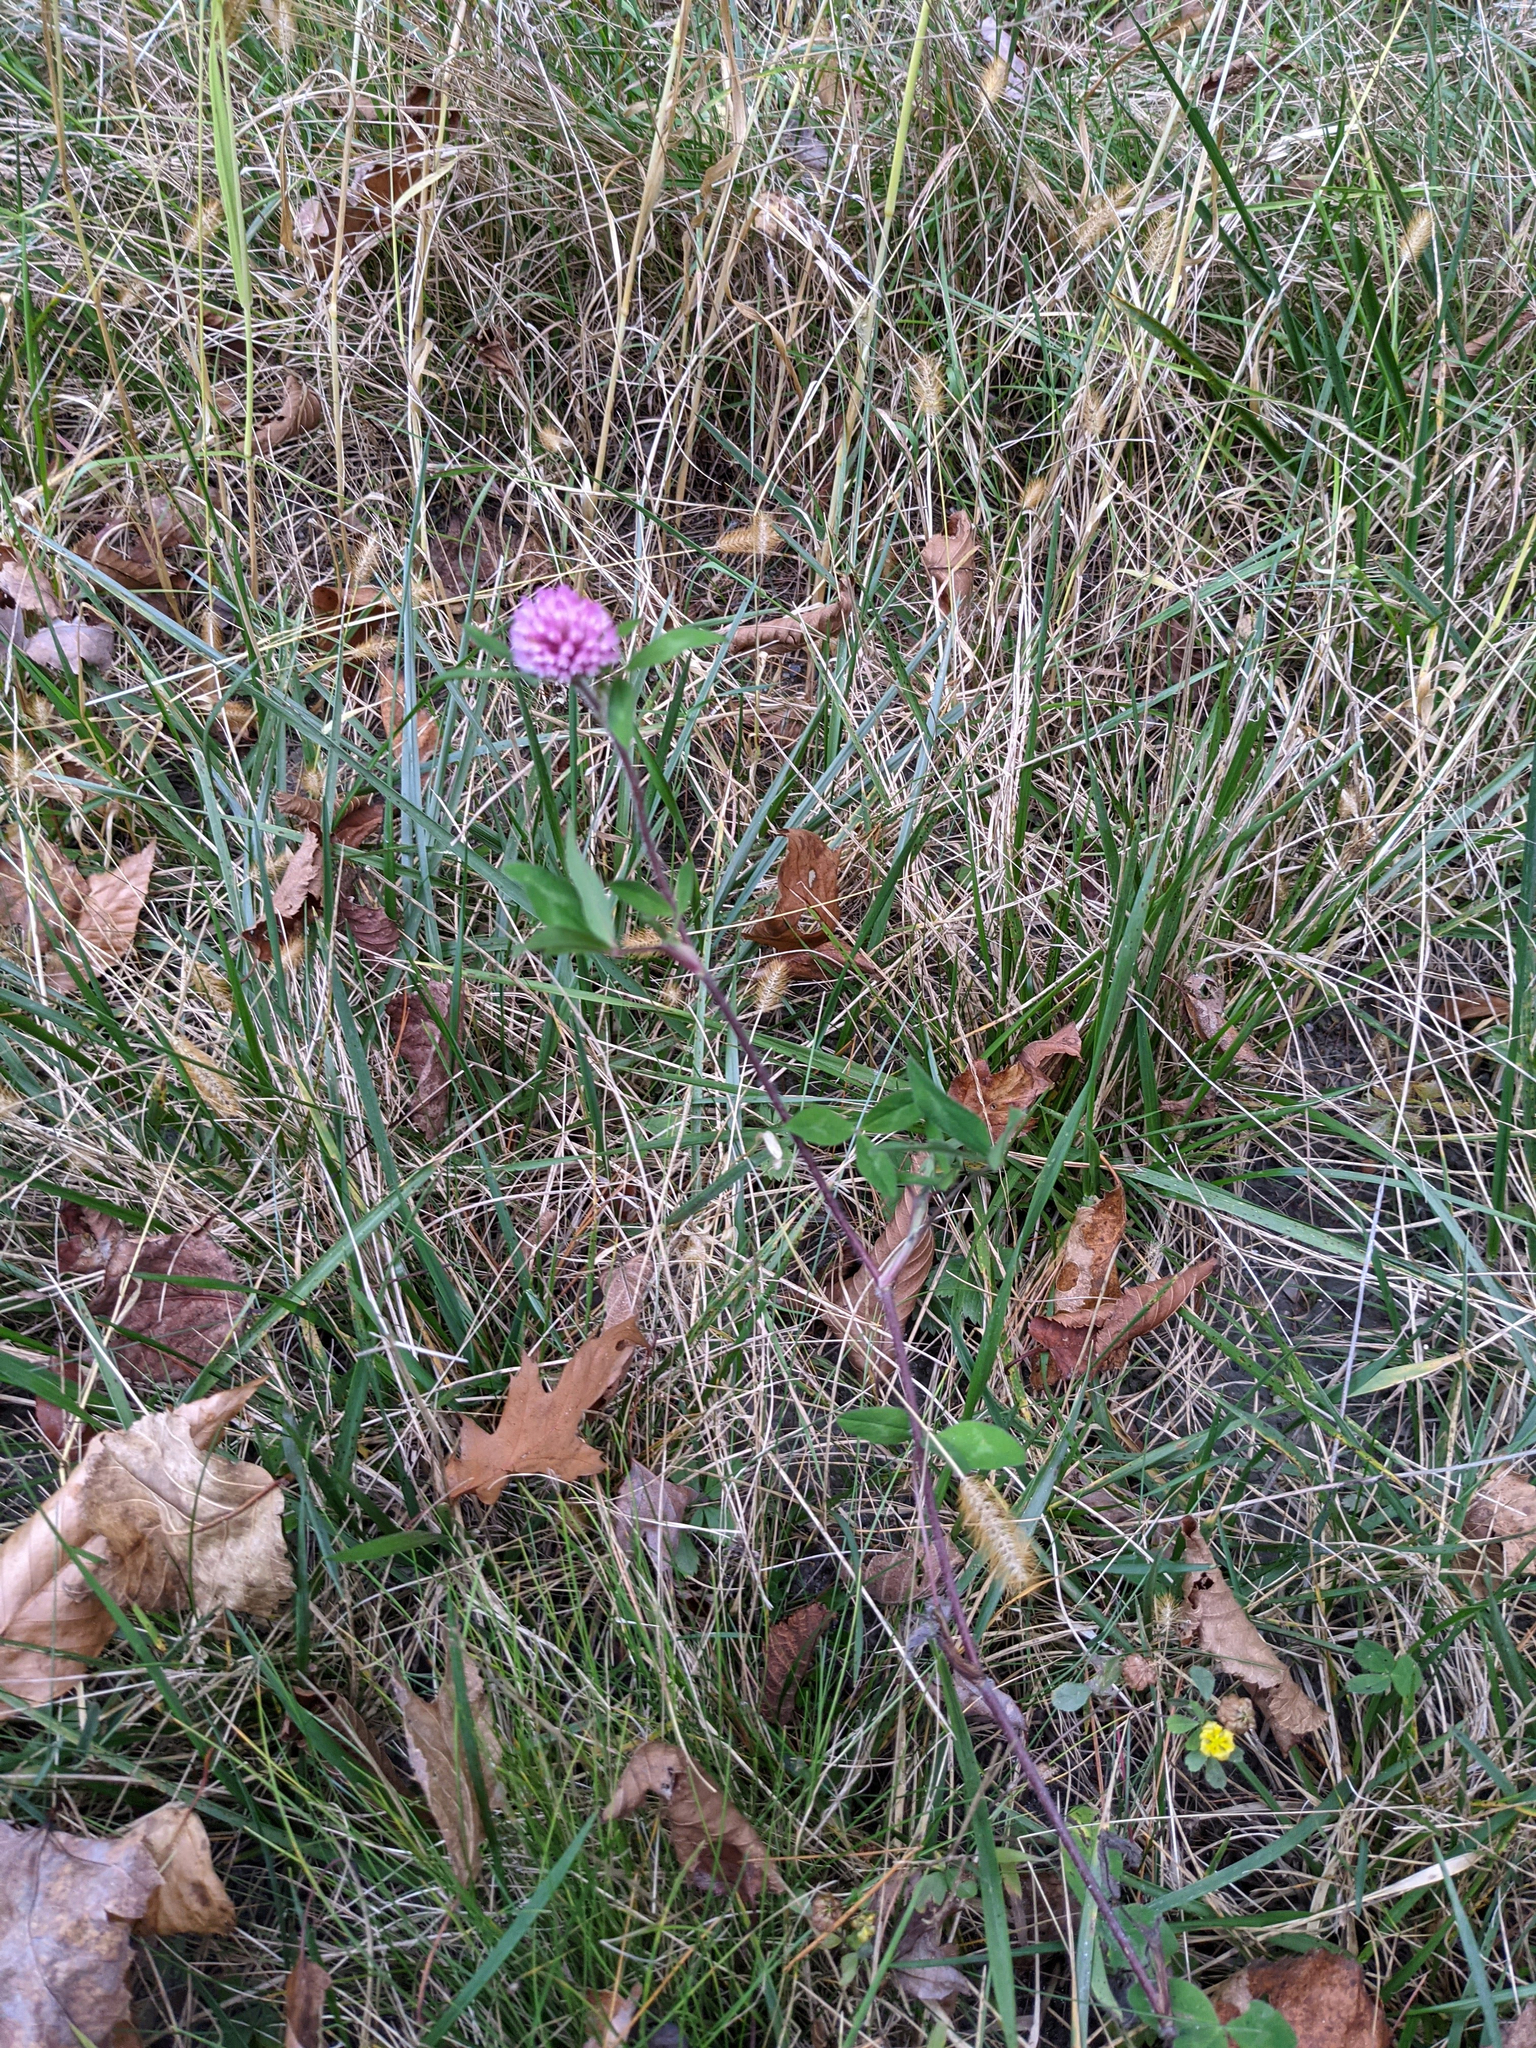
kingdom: Plantae
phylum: Tracheophyta
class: Magnoliopsida
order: Fabales
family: Fabaceae
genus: Trifolium
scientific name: Trifolium pratense
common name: Red clover
